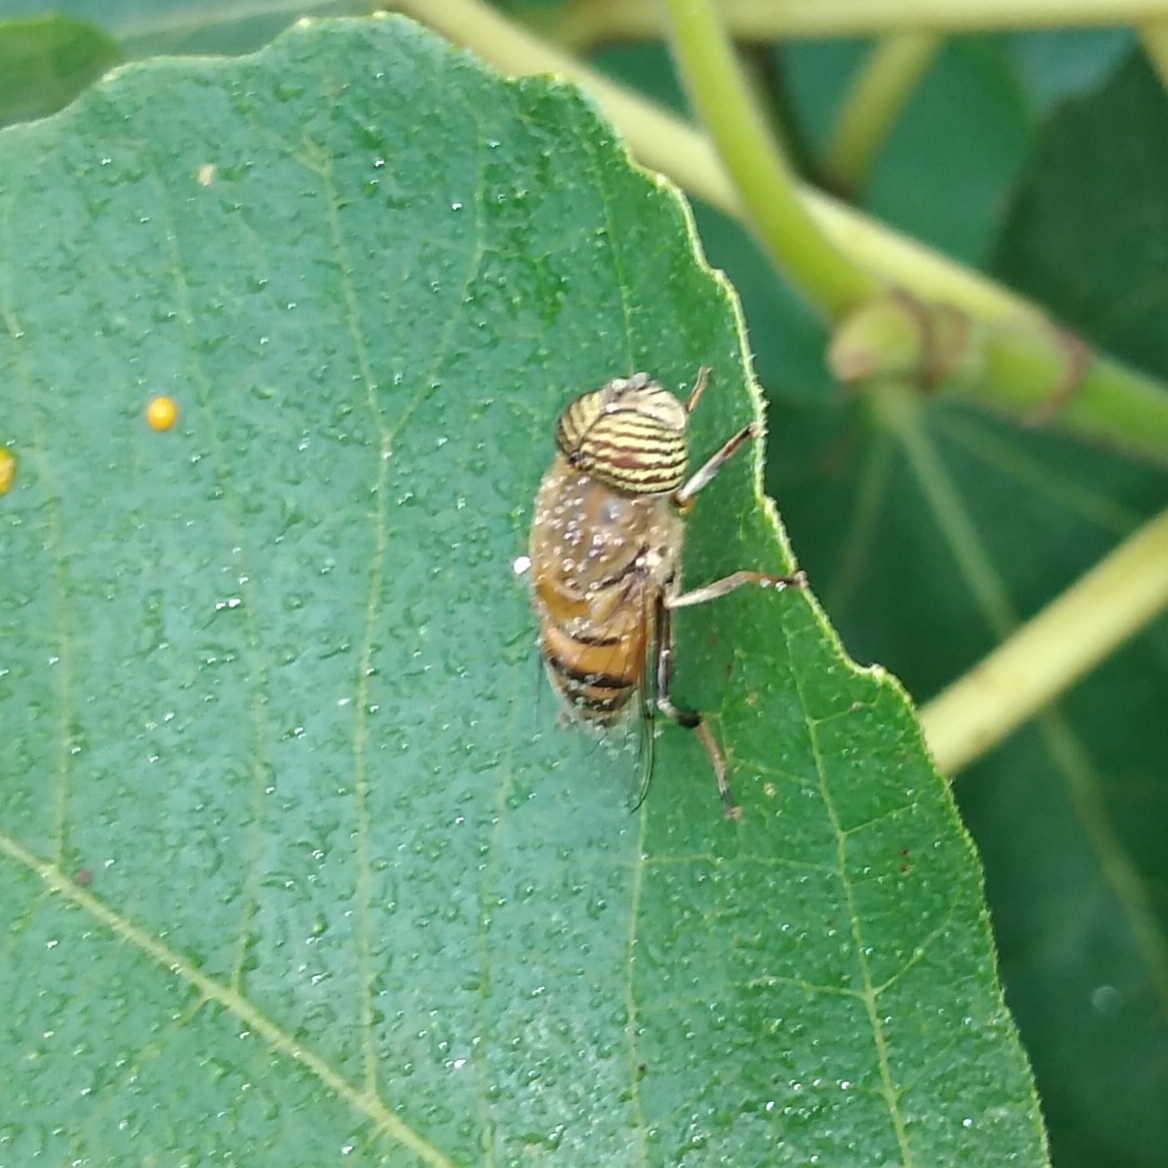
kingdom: Animalia
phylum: Arthropoda
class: Insecta
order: Diptera
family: Syrphidae
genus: Eristalinus
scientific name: Eristalinus taeniops
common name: Syrphid fly
